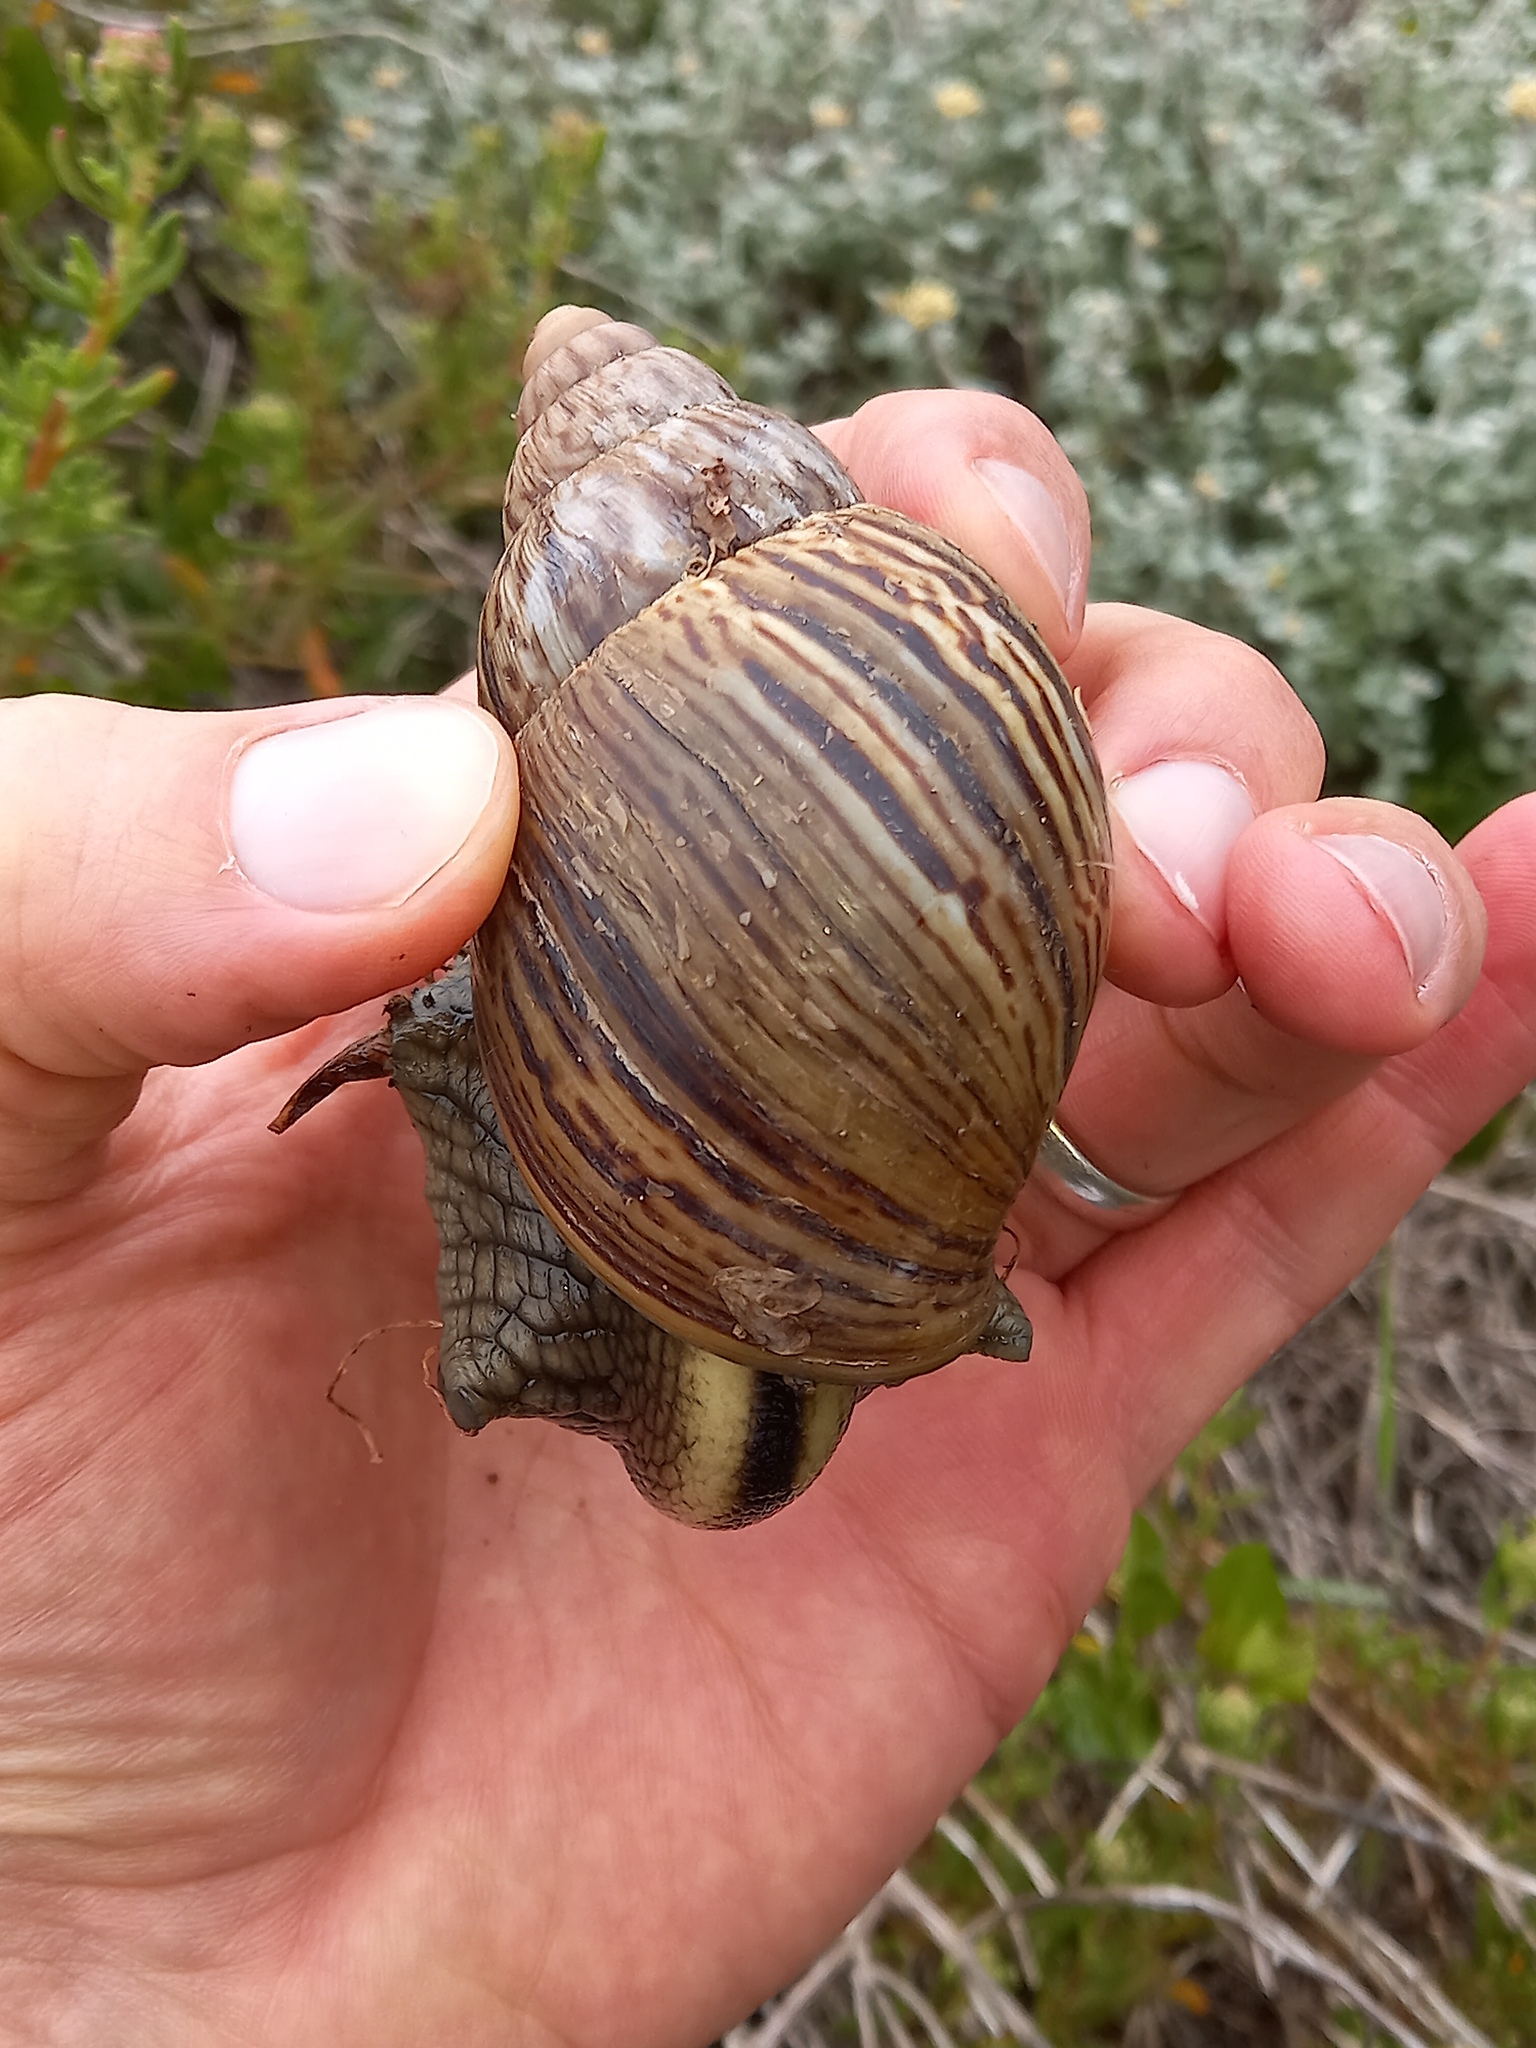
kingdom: Animalia
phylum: Mollusca
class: Gastropoda
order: Stylommatophora
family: Achatinidae
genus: Cochlitoma
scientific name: Cochlitoma zebra
